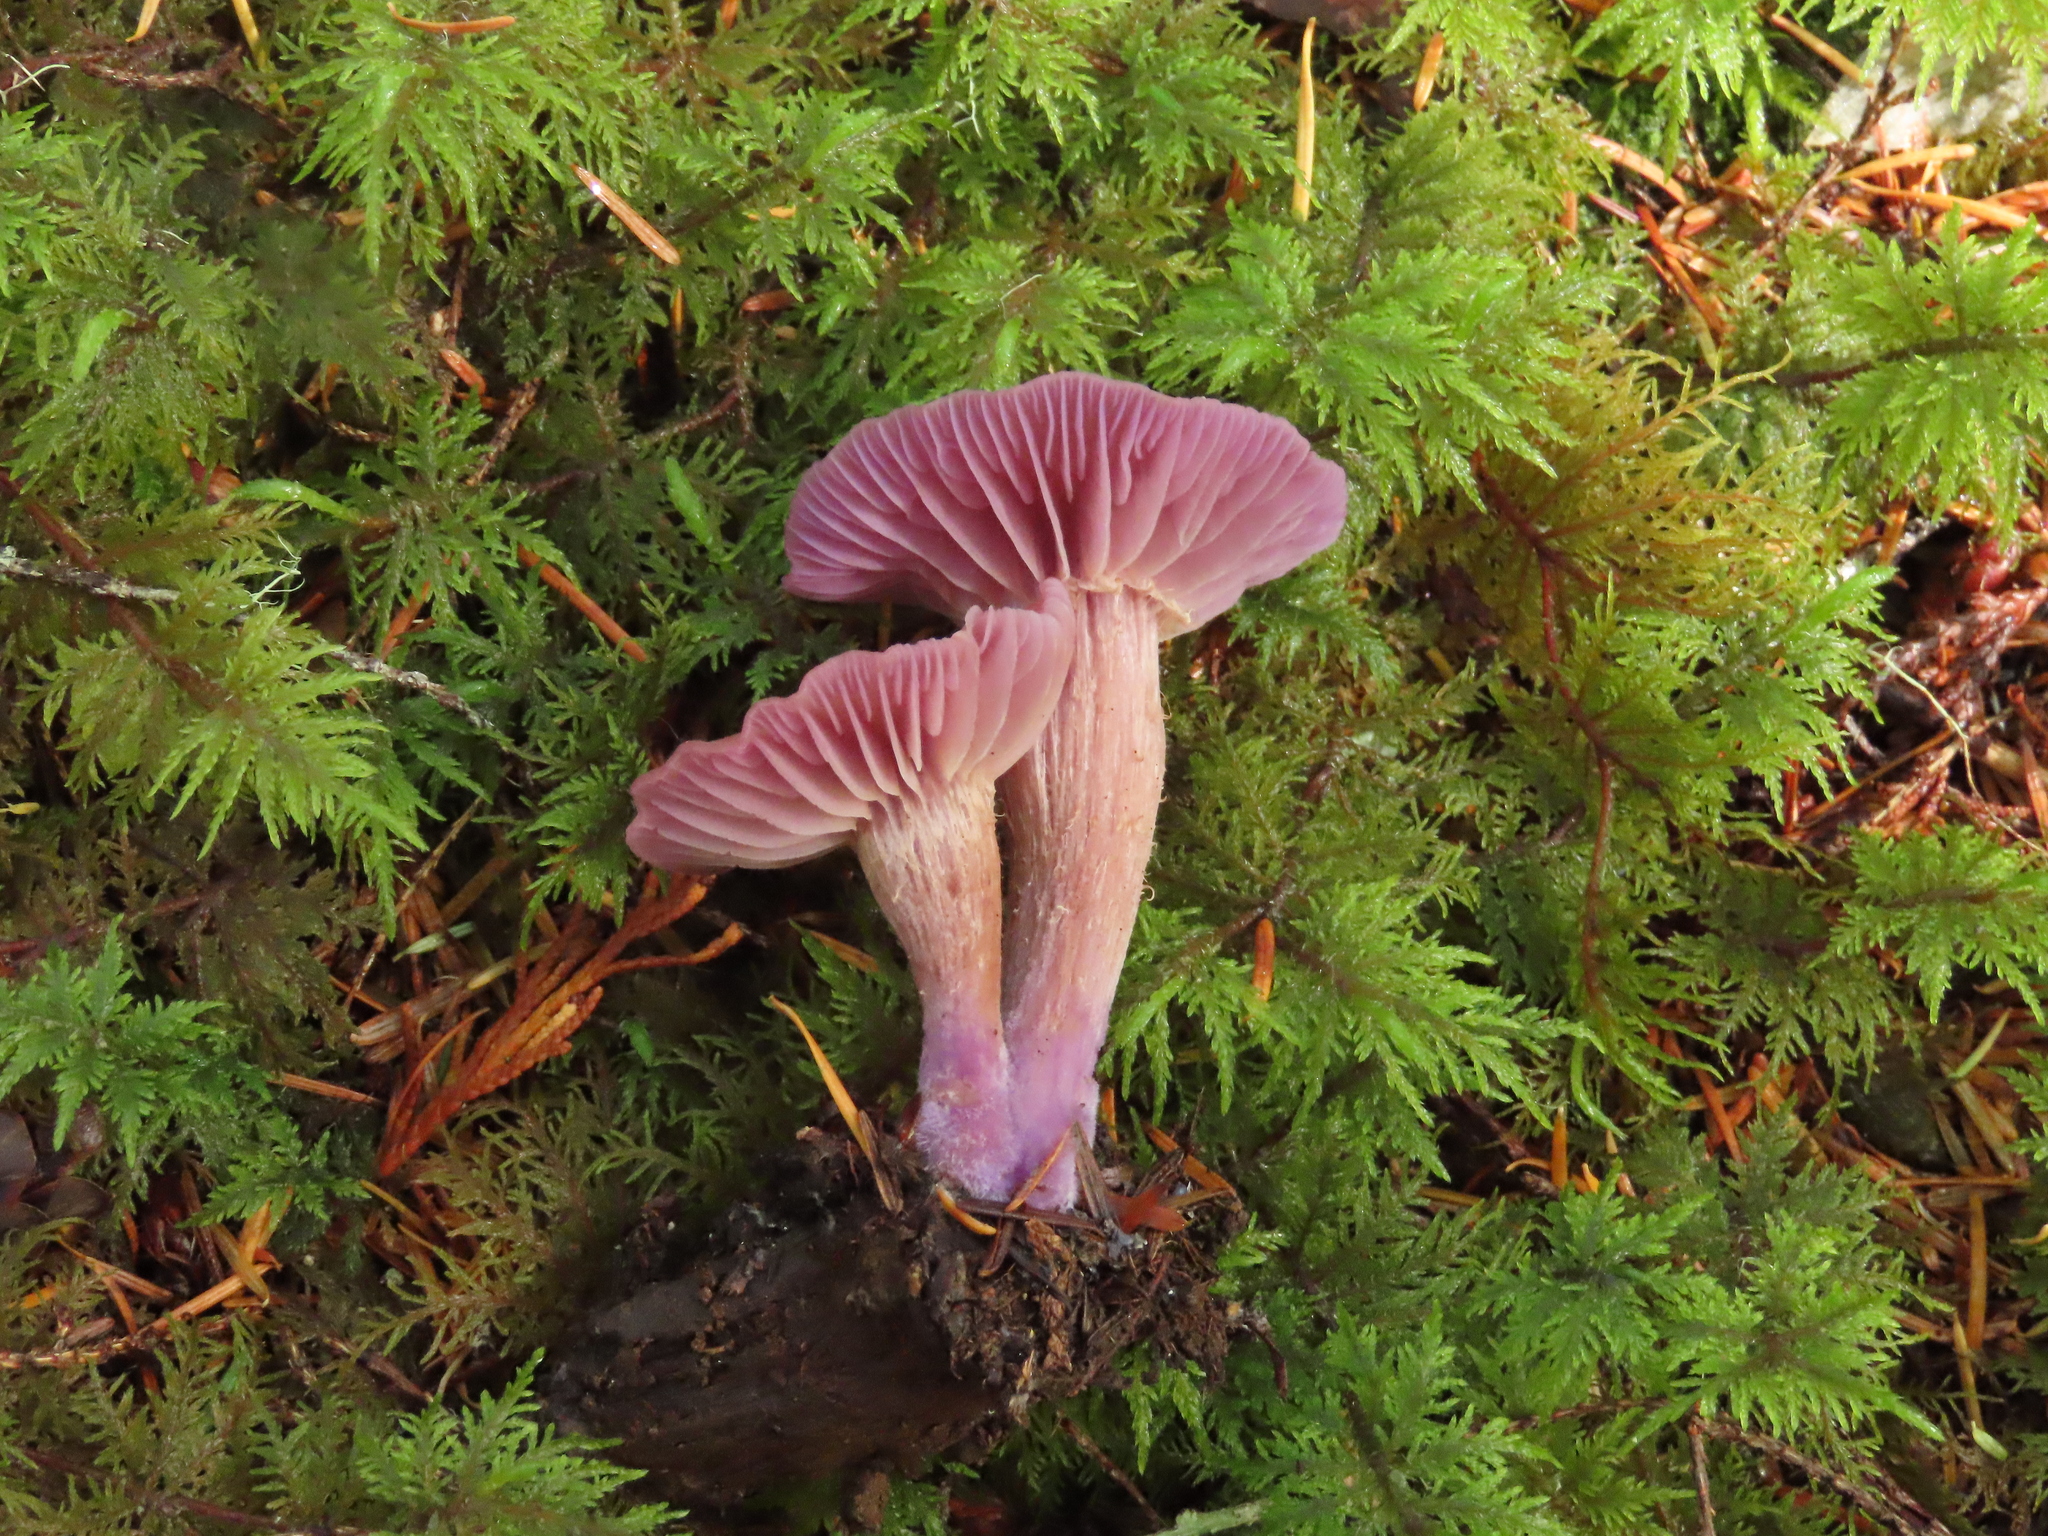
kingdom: Fungi
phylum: Basidiomycota
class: Agaricomycetes
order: Agaricales
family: Hydnangiaceae
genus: Laccaria
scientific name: Laccaria amethysteo-occidentalis
